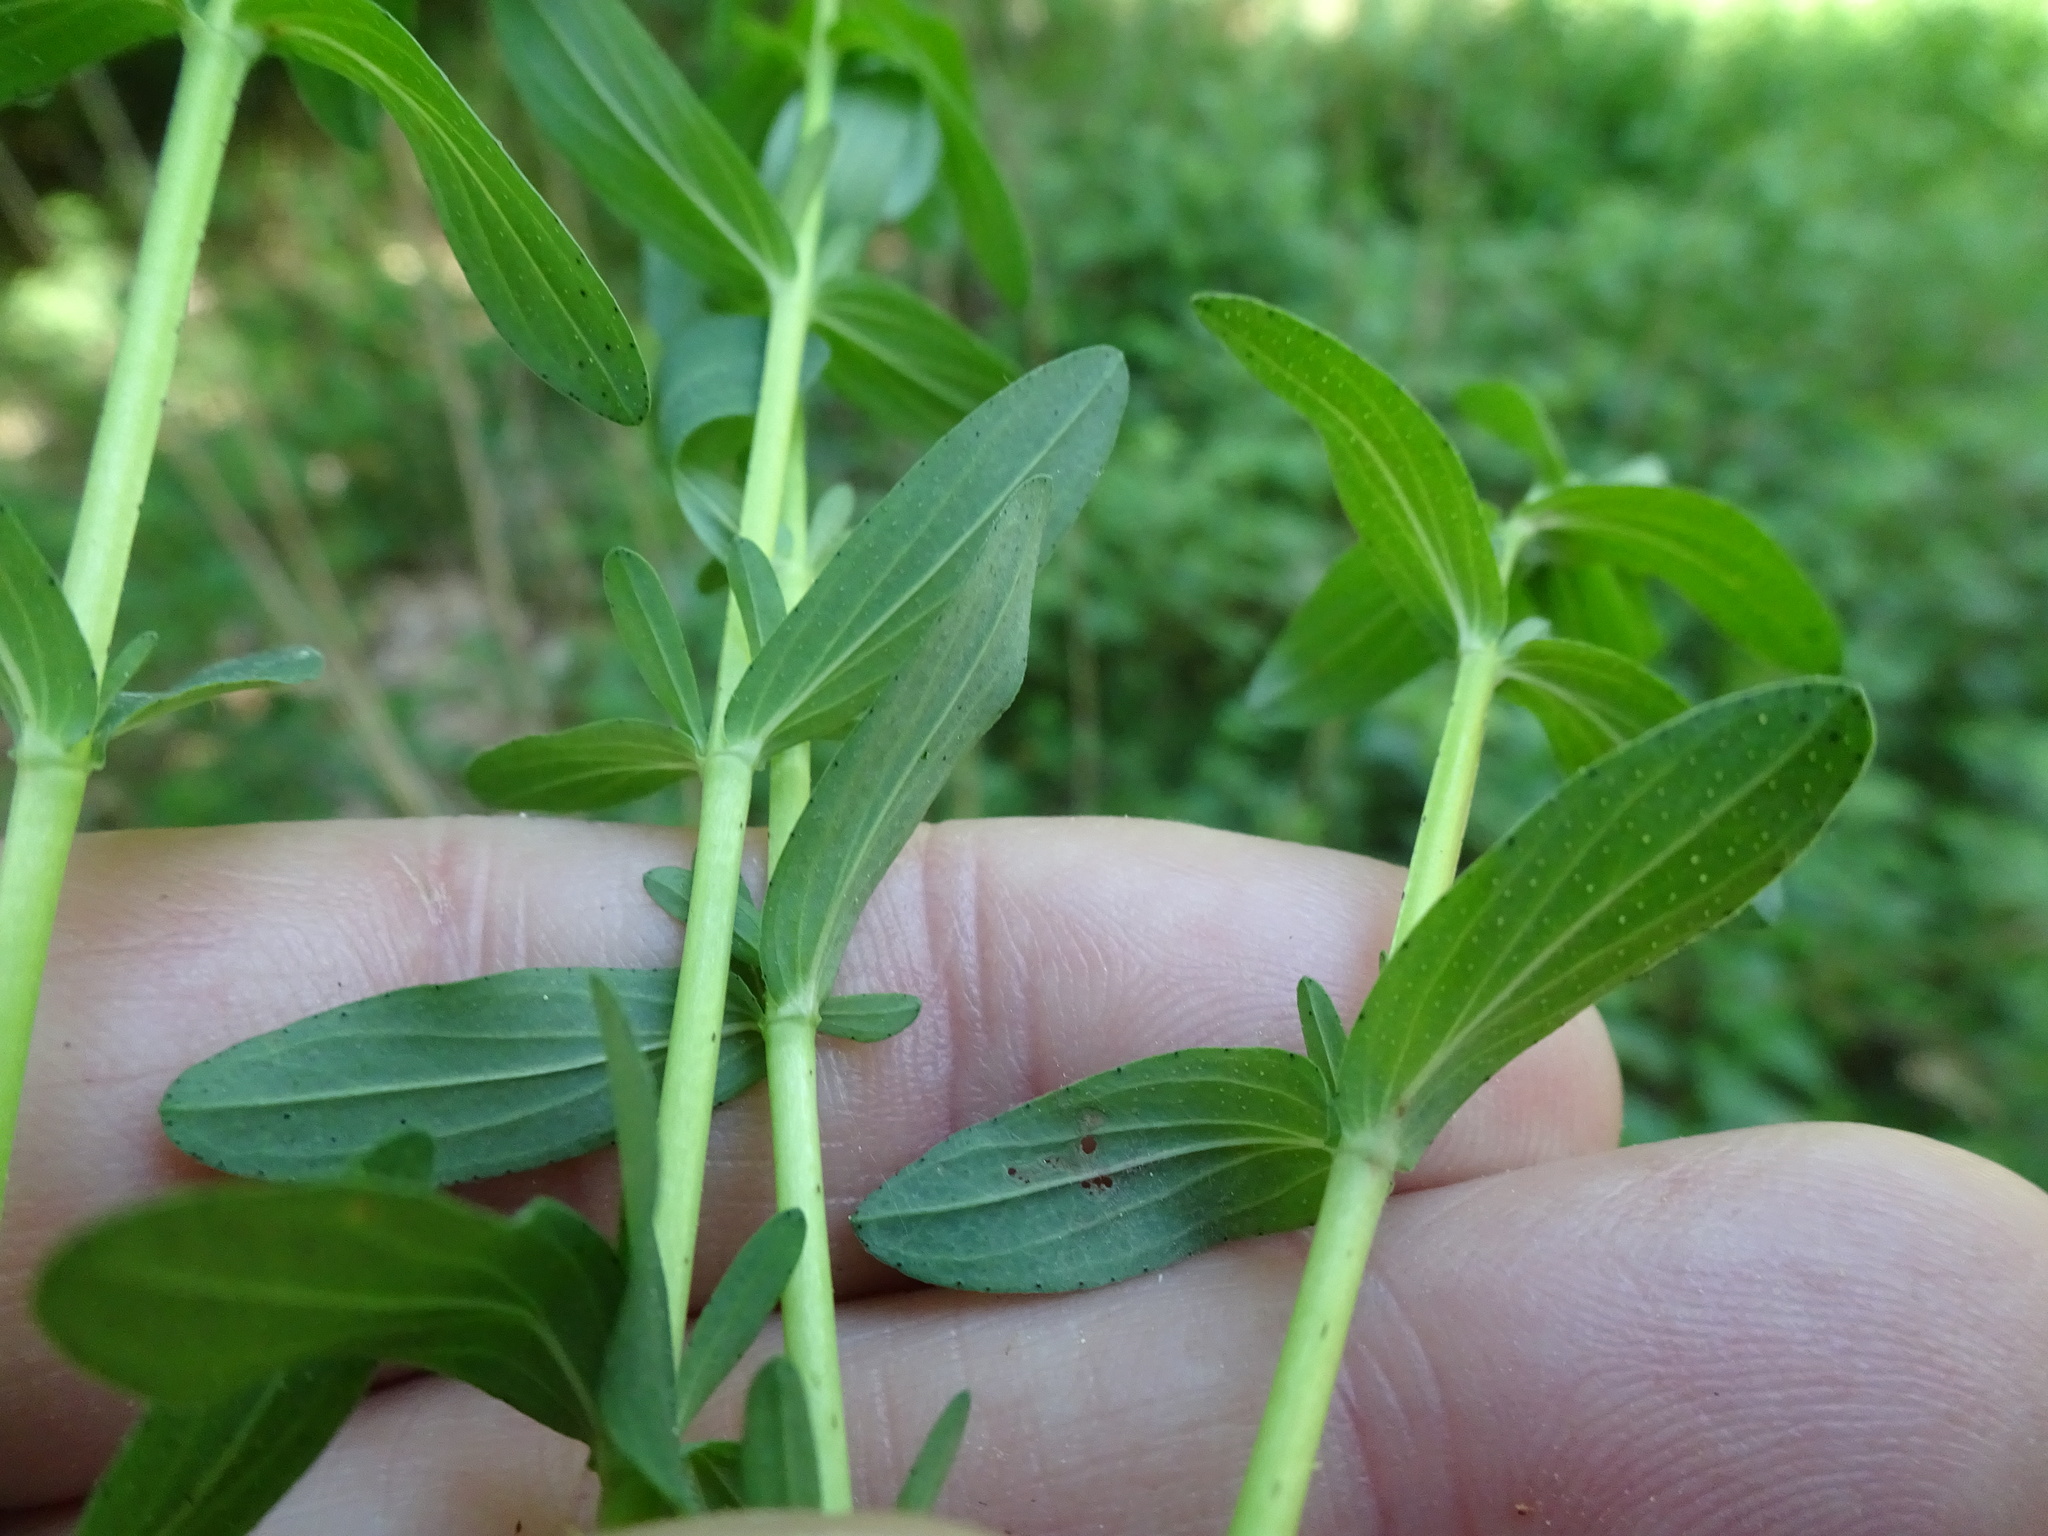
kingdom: Plantae
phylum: Tracheophyta
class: Magnoliopsida
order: Malpighiales
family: Hypericaceae
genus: Hypericum
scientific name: Hypericum perforatum
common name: Common st. johnswort
